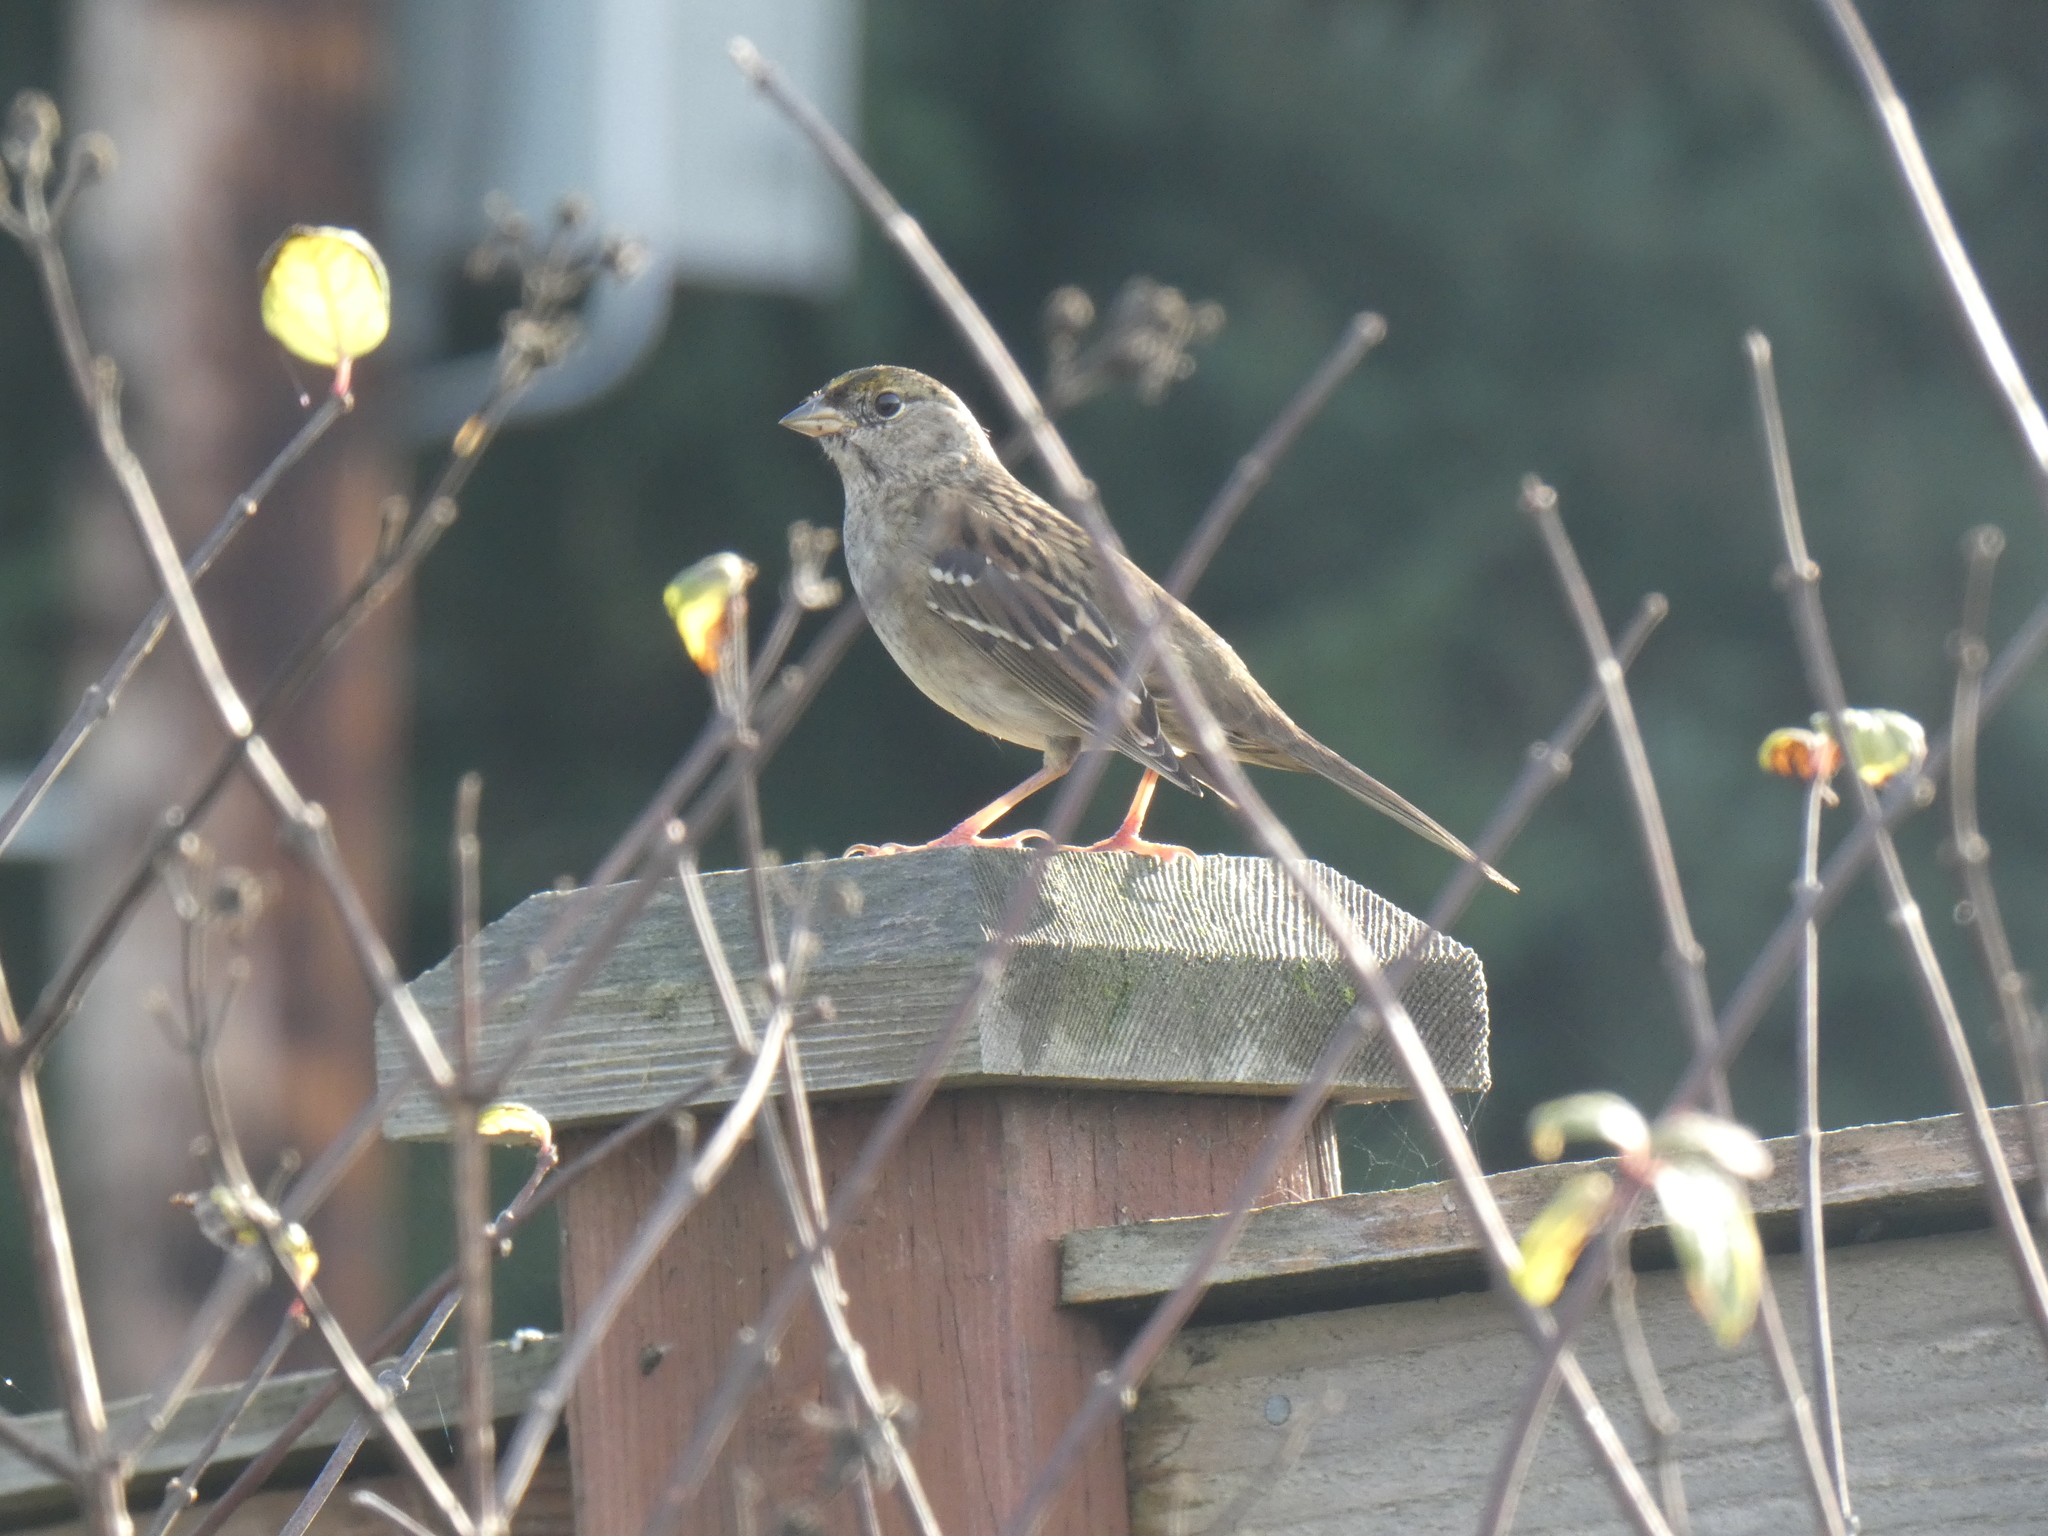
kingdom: Animalia
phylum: Chordata
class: Aves
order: Passeriformes
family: Passerellidae
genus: Zonotrichia
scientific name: Zonotrichia atricapilla
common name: Golden-crowned sparrow
